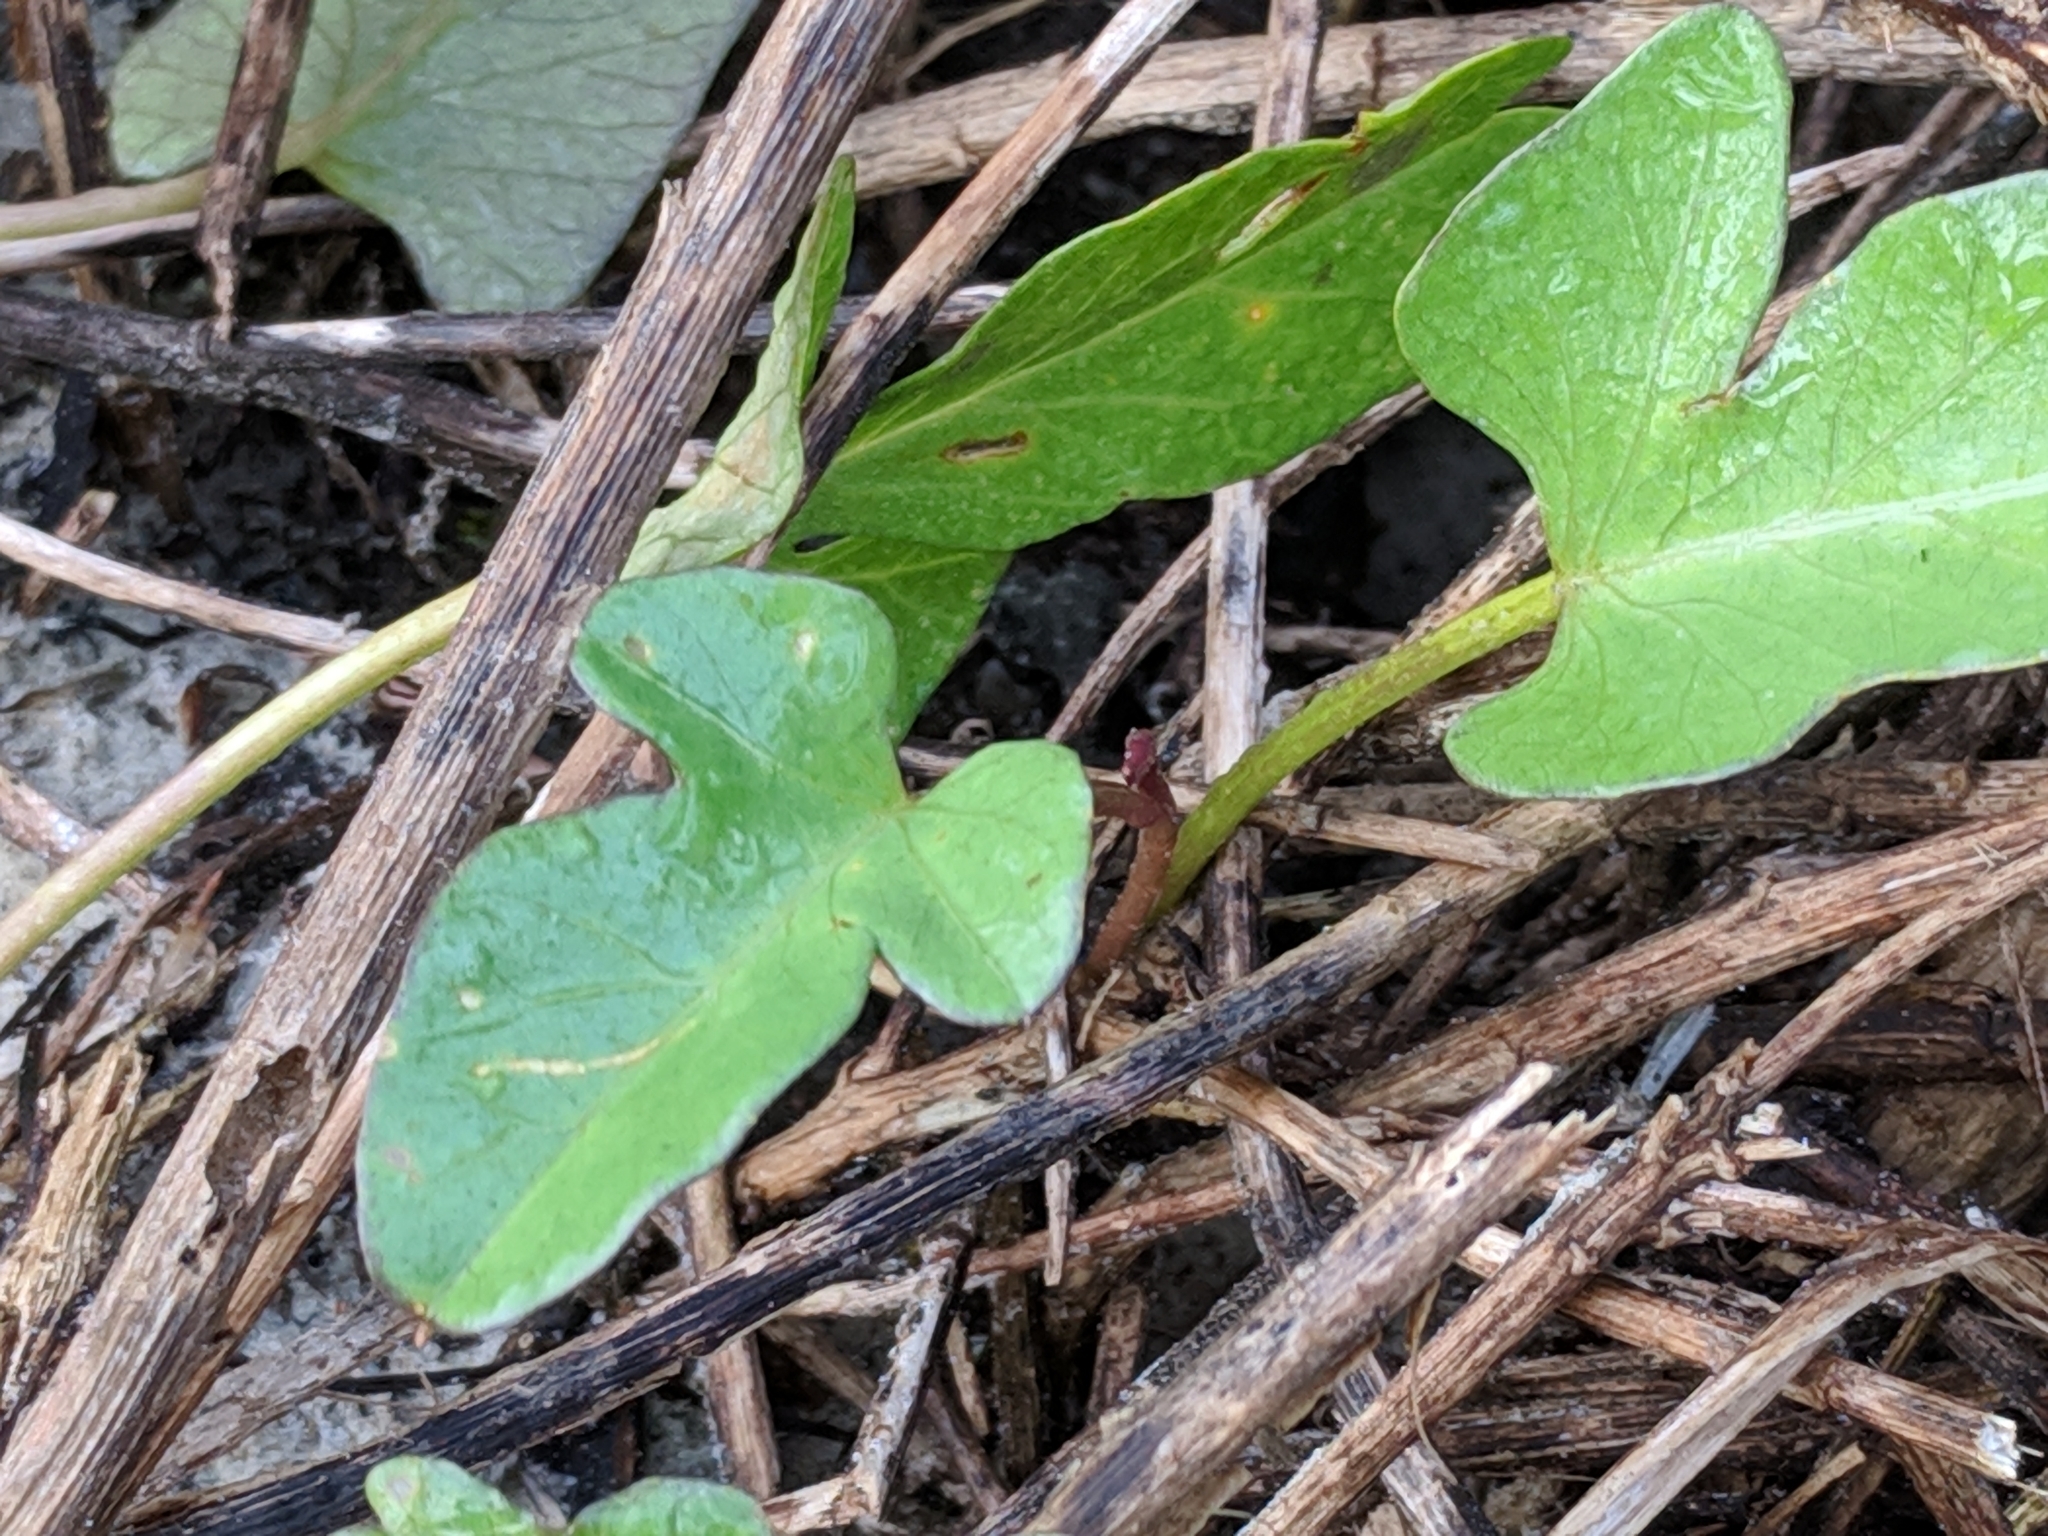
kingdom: Plantae
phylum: Tracheophyta
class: Magnoliopsida
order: Solanales
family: Convolvulaceae
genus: Ipomoea
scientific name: Ipomoea imperati
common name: Fiddle-leaf morning-glory
